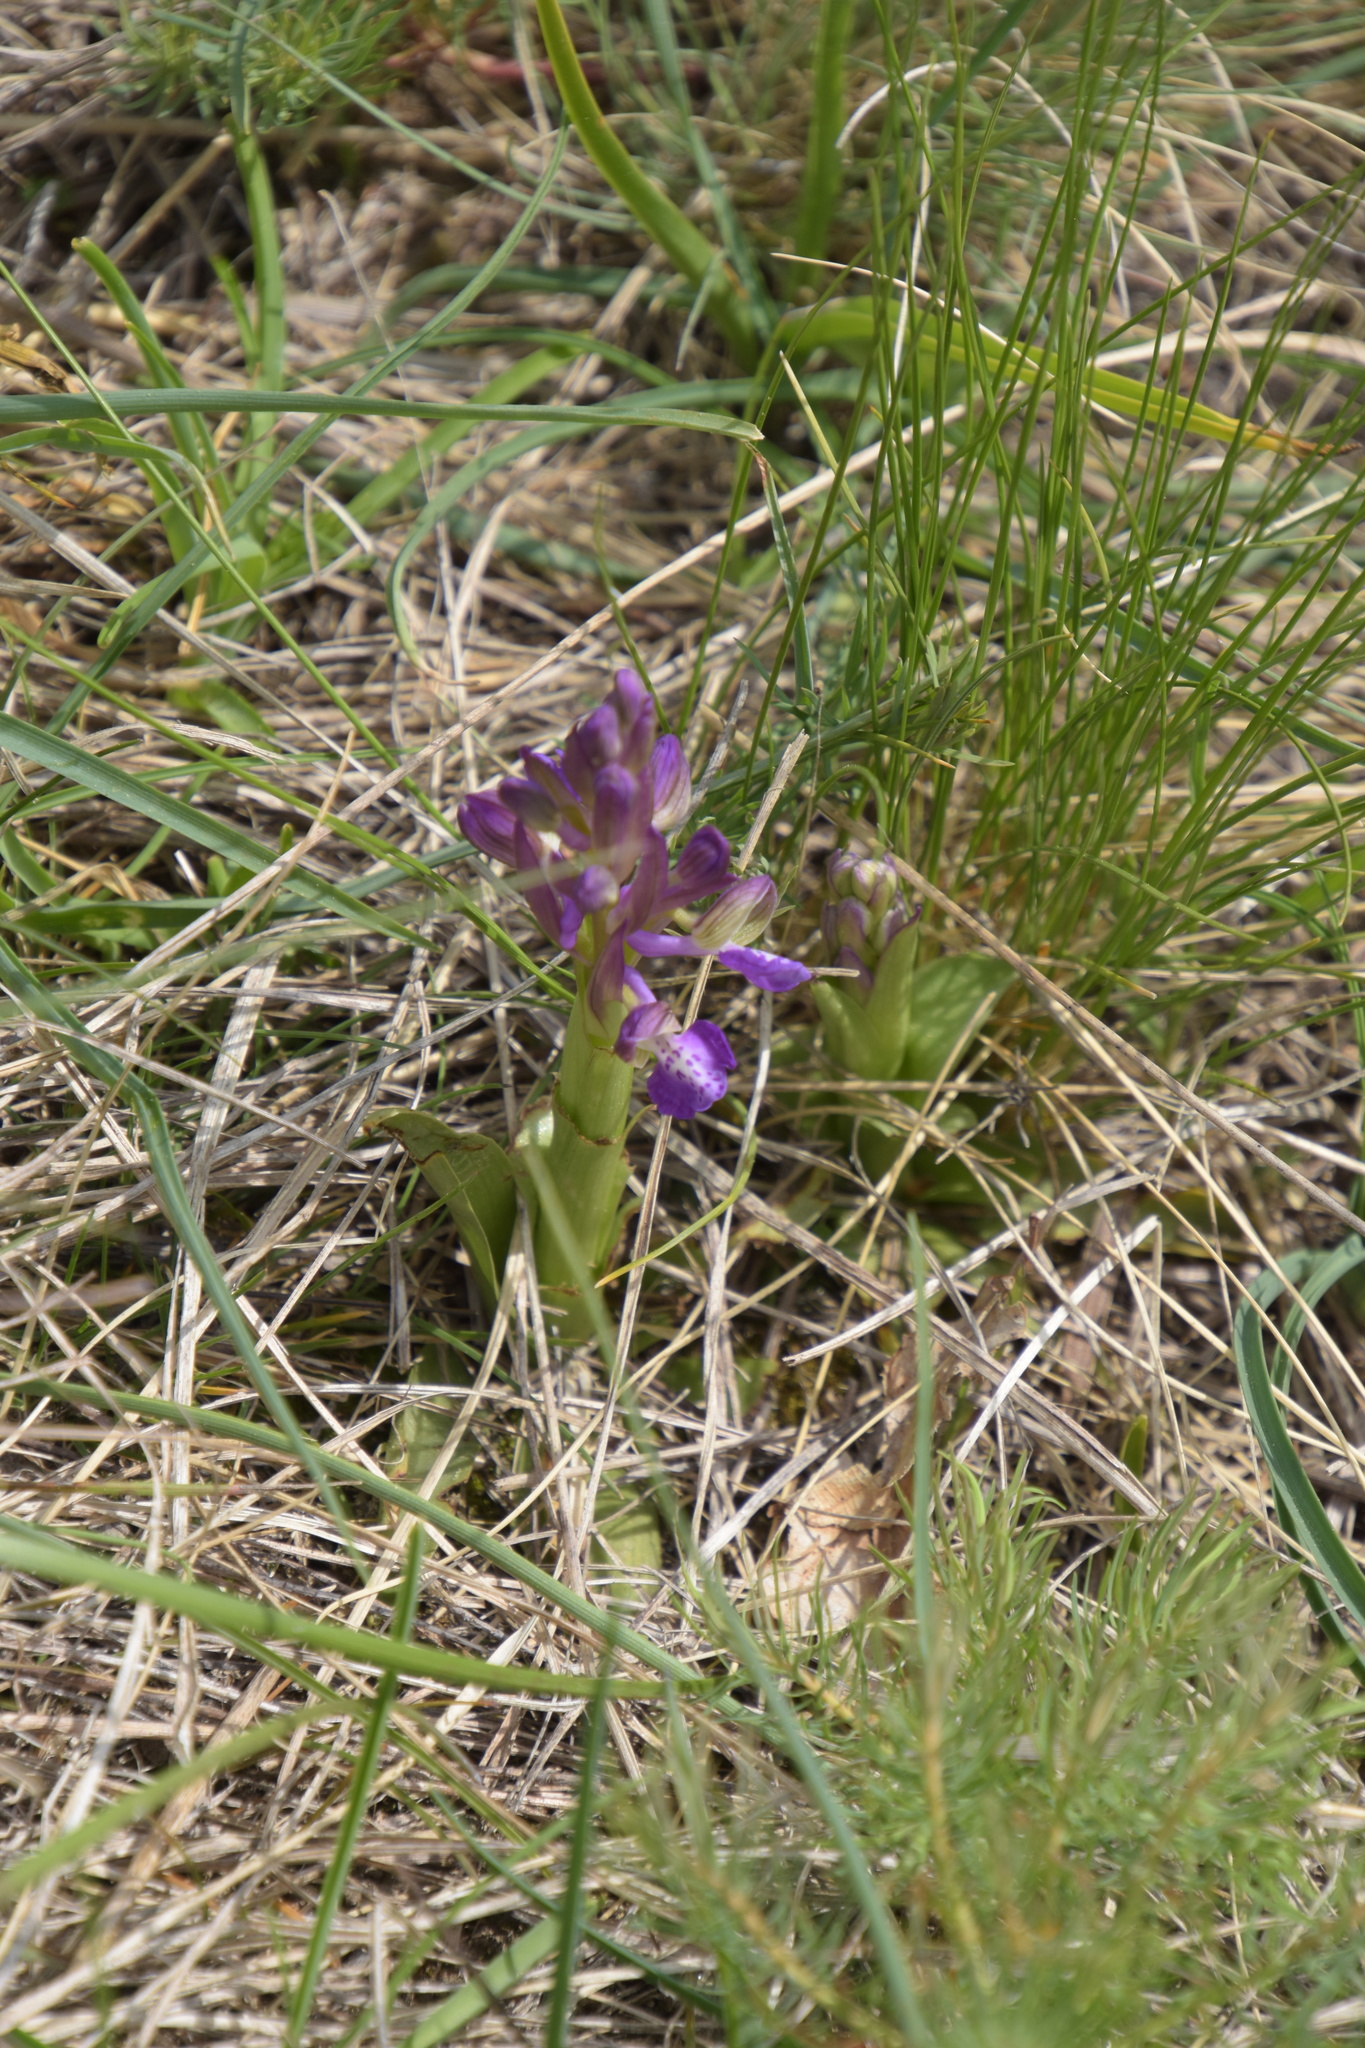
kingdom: Plantae
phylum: Tracheophyta
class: Liliopsida
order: Asparagales
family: Orchidaceae
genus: Anacamptis
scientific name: Anacamptis morio
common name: Green-winged orchid
